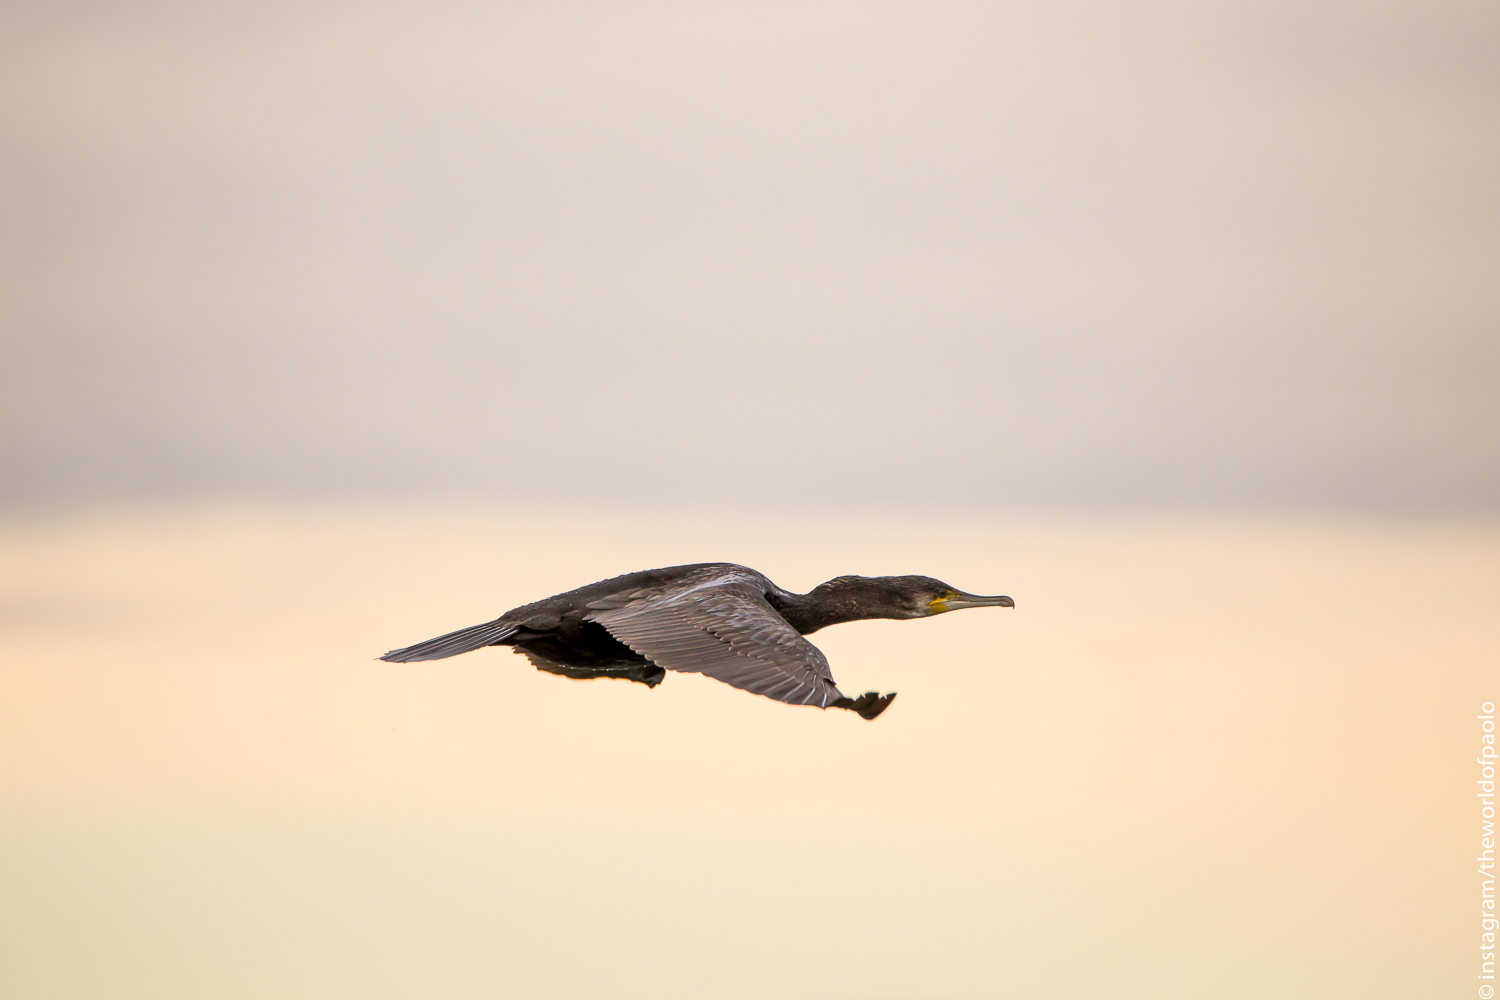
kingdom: Animalia
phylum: Chordata
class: Aves
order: Suliformes
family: Phalacrocoracidae
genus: Phalacrocorax
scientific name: Phalacrocorax carbo
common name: Great cormorant
